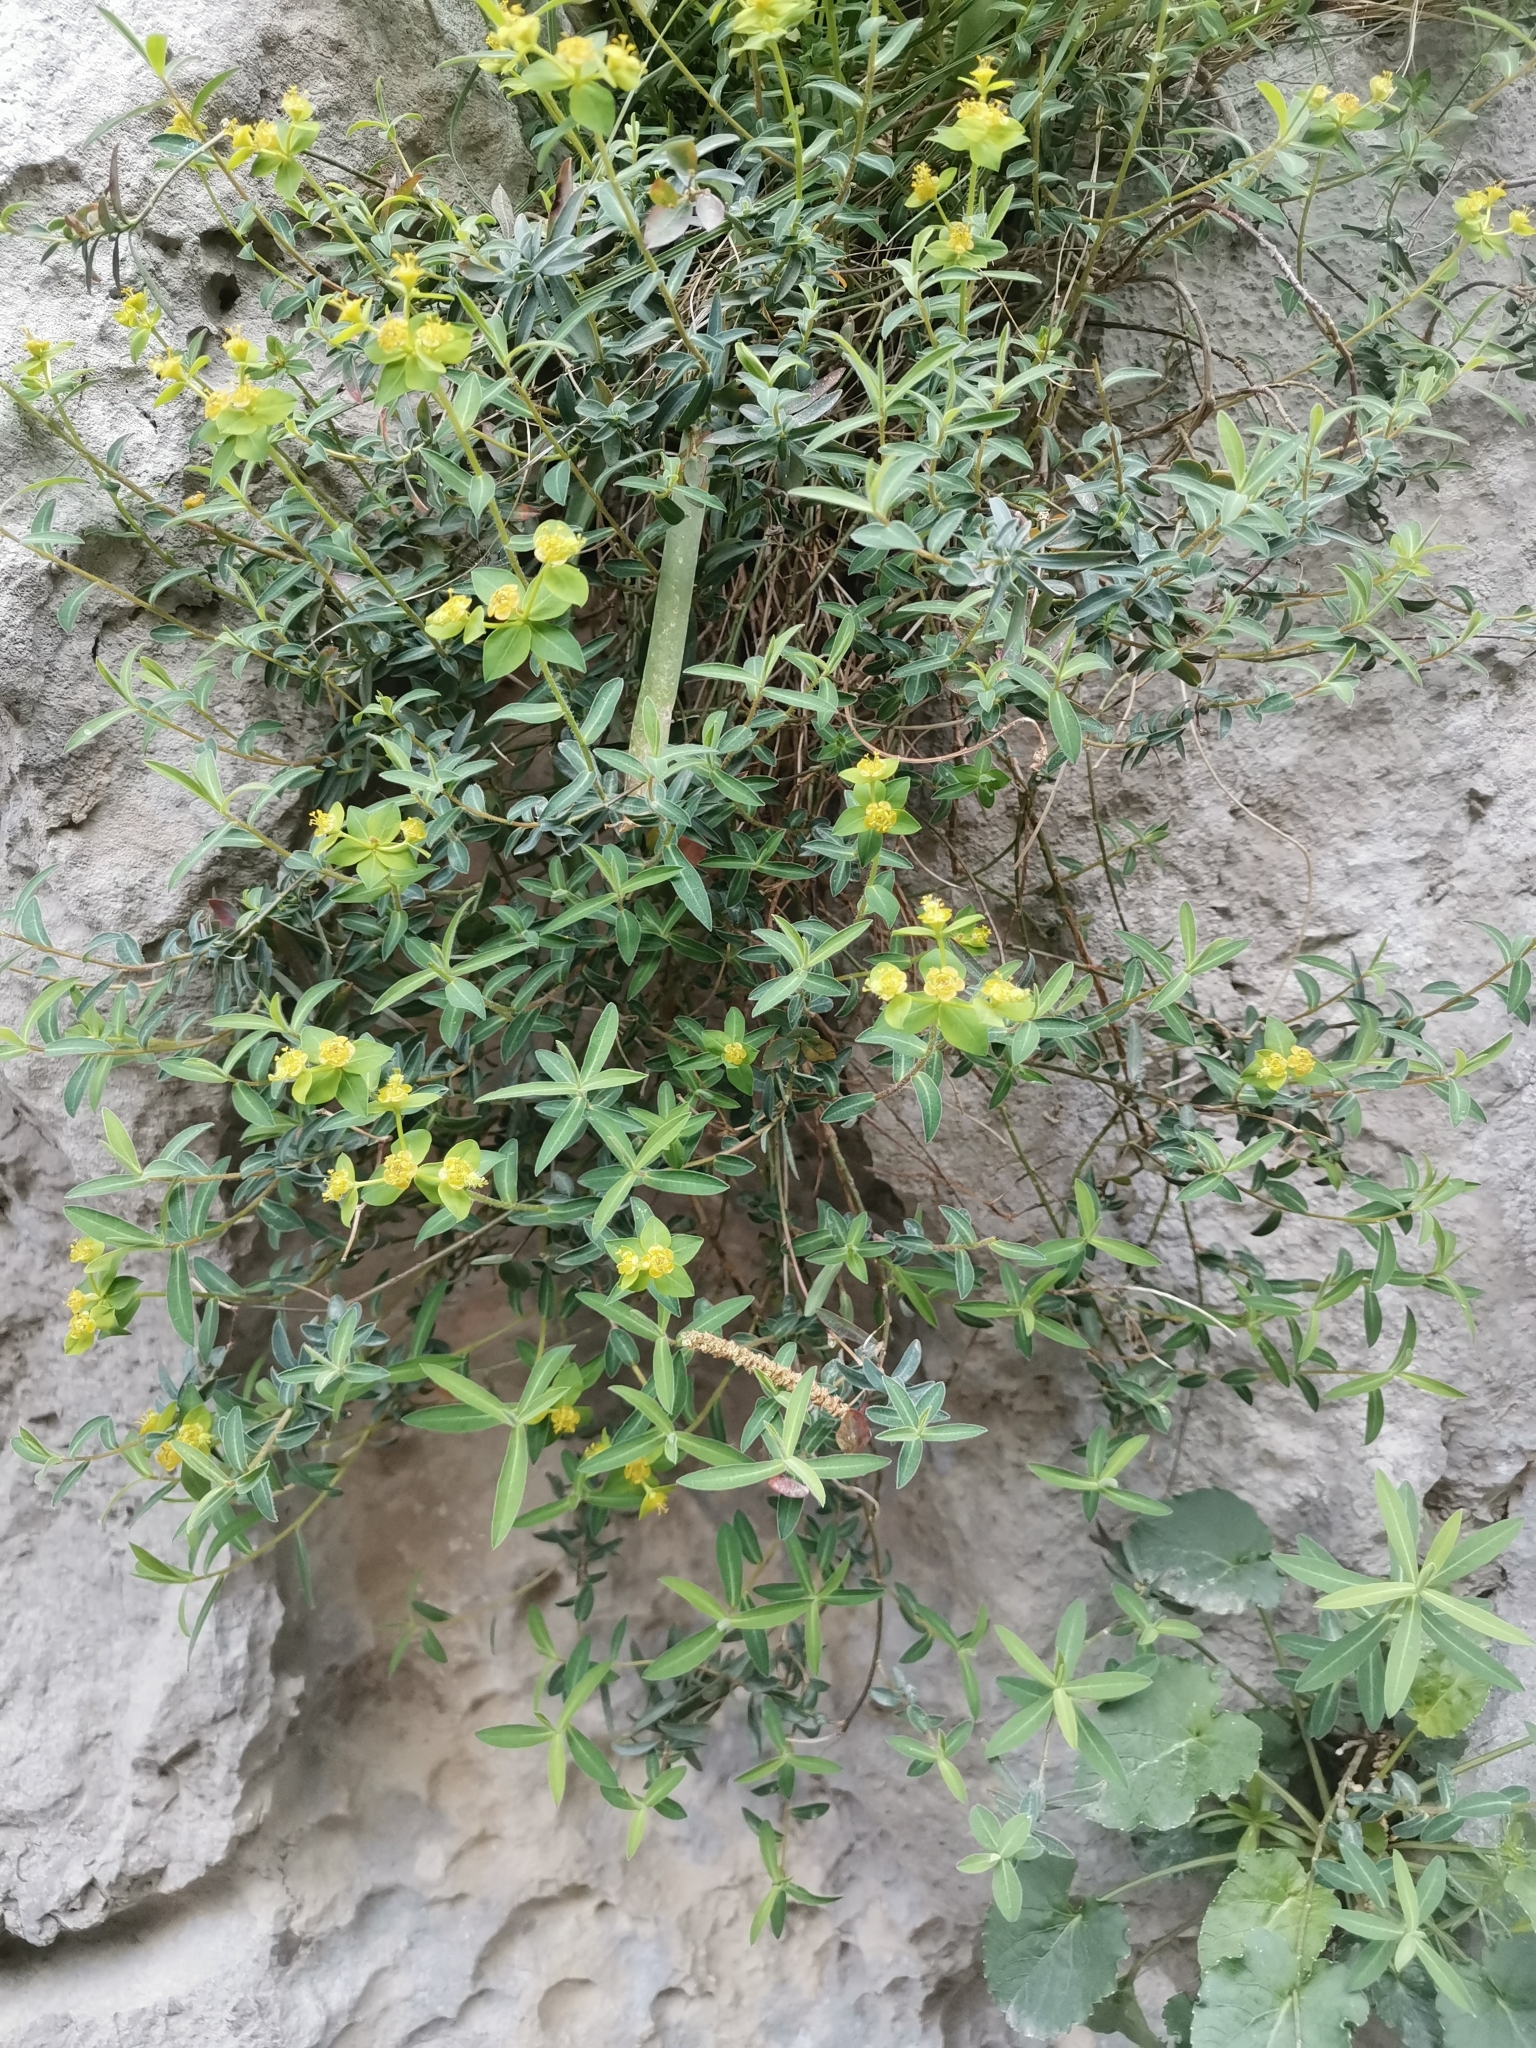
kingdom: Plantae
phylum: Tracheophyta
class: Magnoliopsida
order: Malpighiales
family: Euphorbiaceae
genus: Euphorbia
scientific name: Euphorbia fragifera
